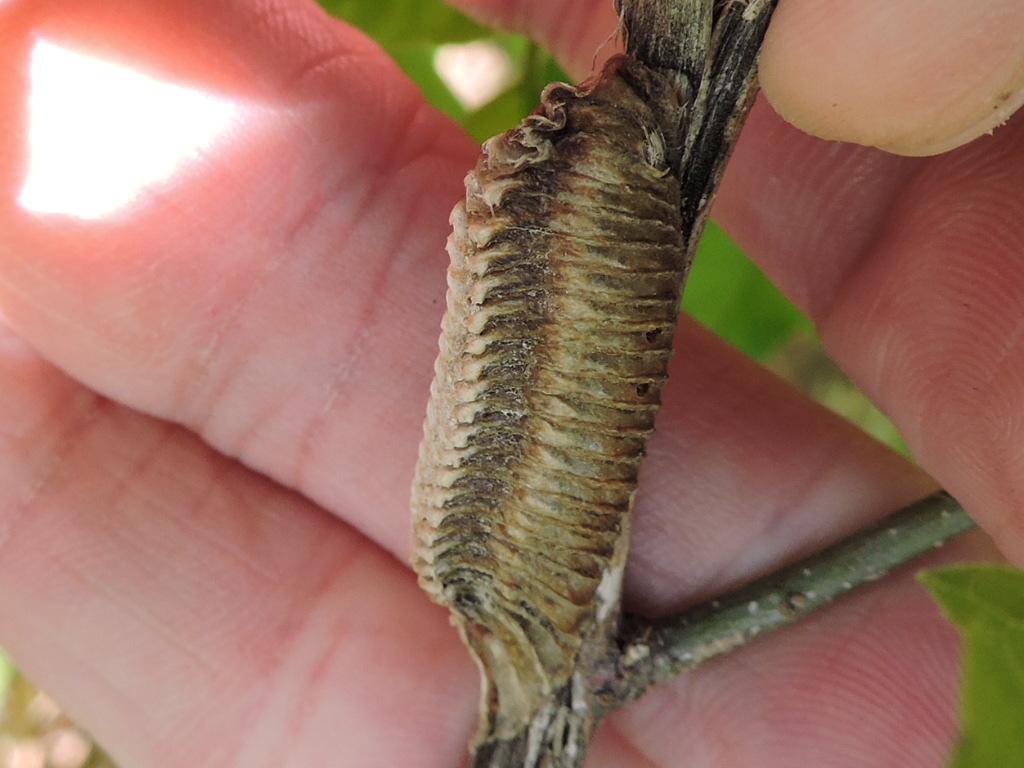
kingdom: Animalia
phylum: Arthropoda
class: Insecta
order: Mantodea
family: Mantidae
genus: Stagmomantis
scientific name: Stagmomantis carolina
